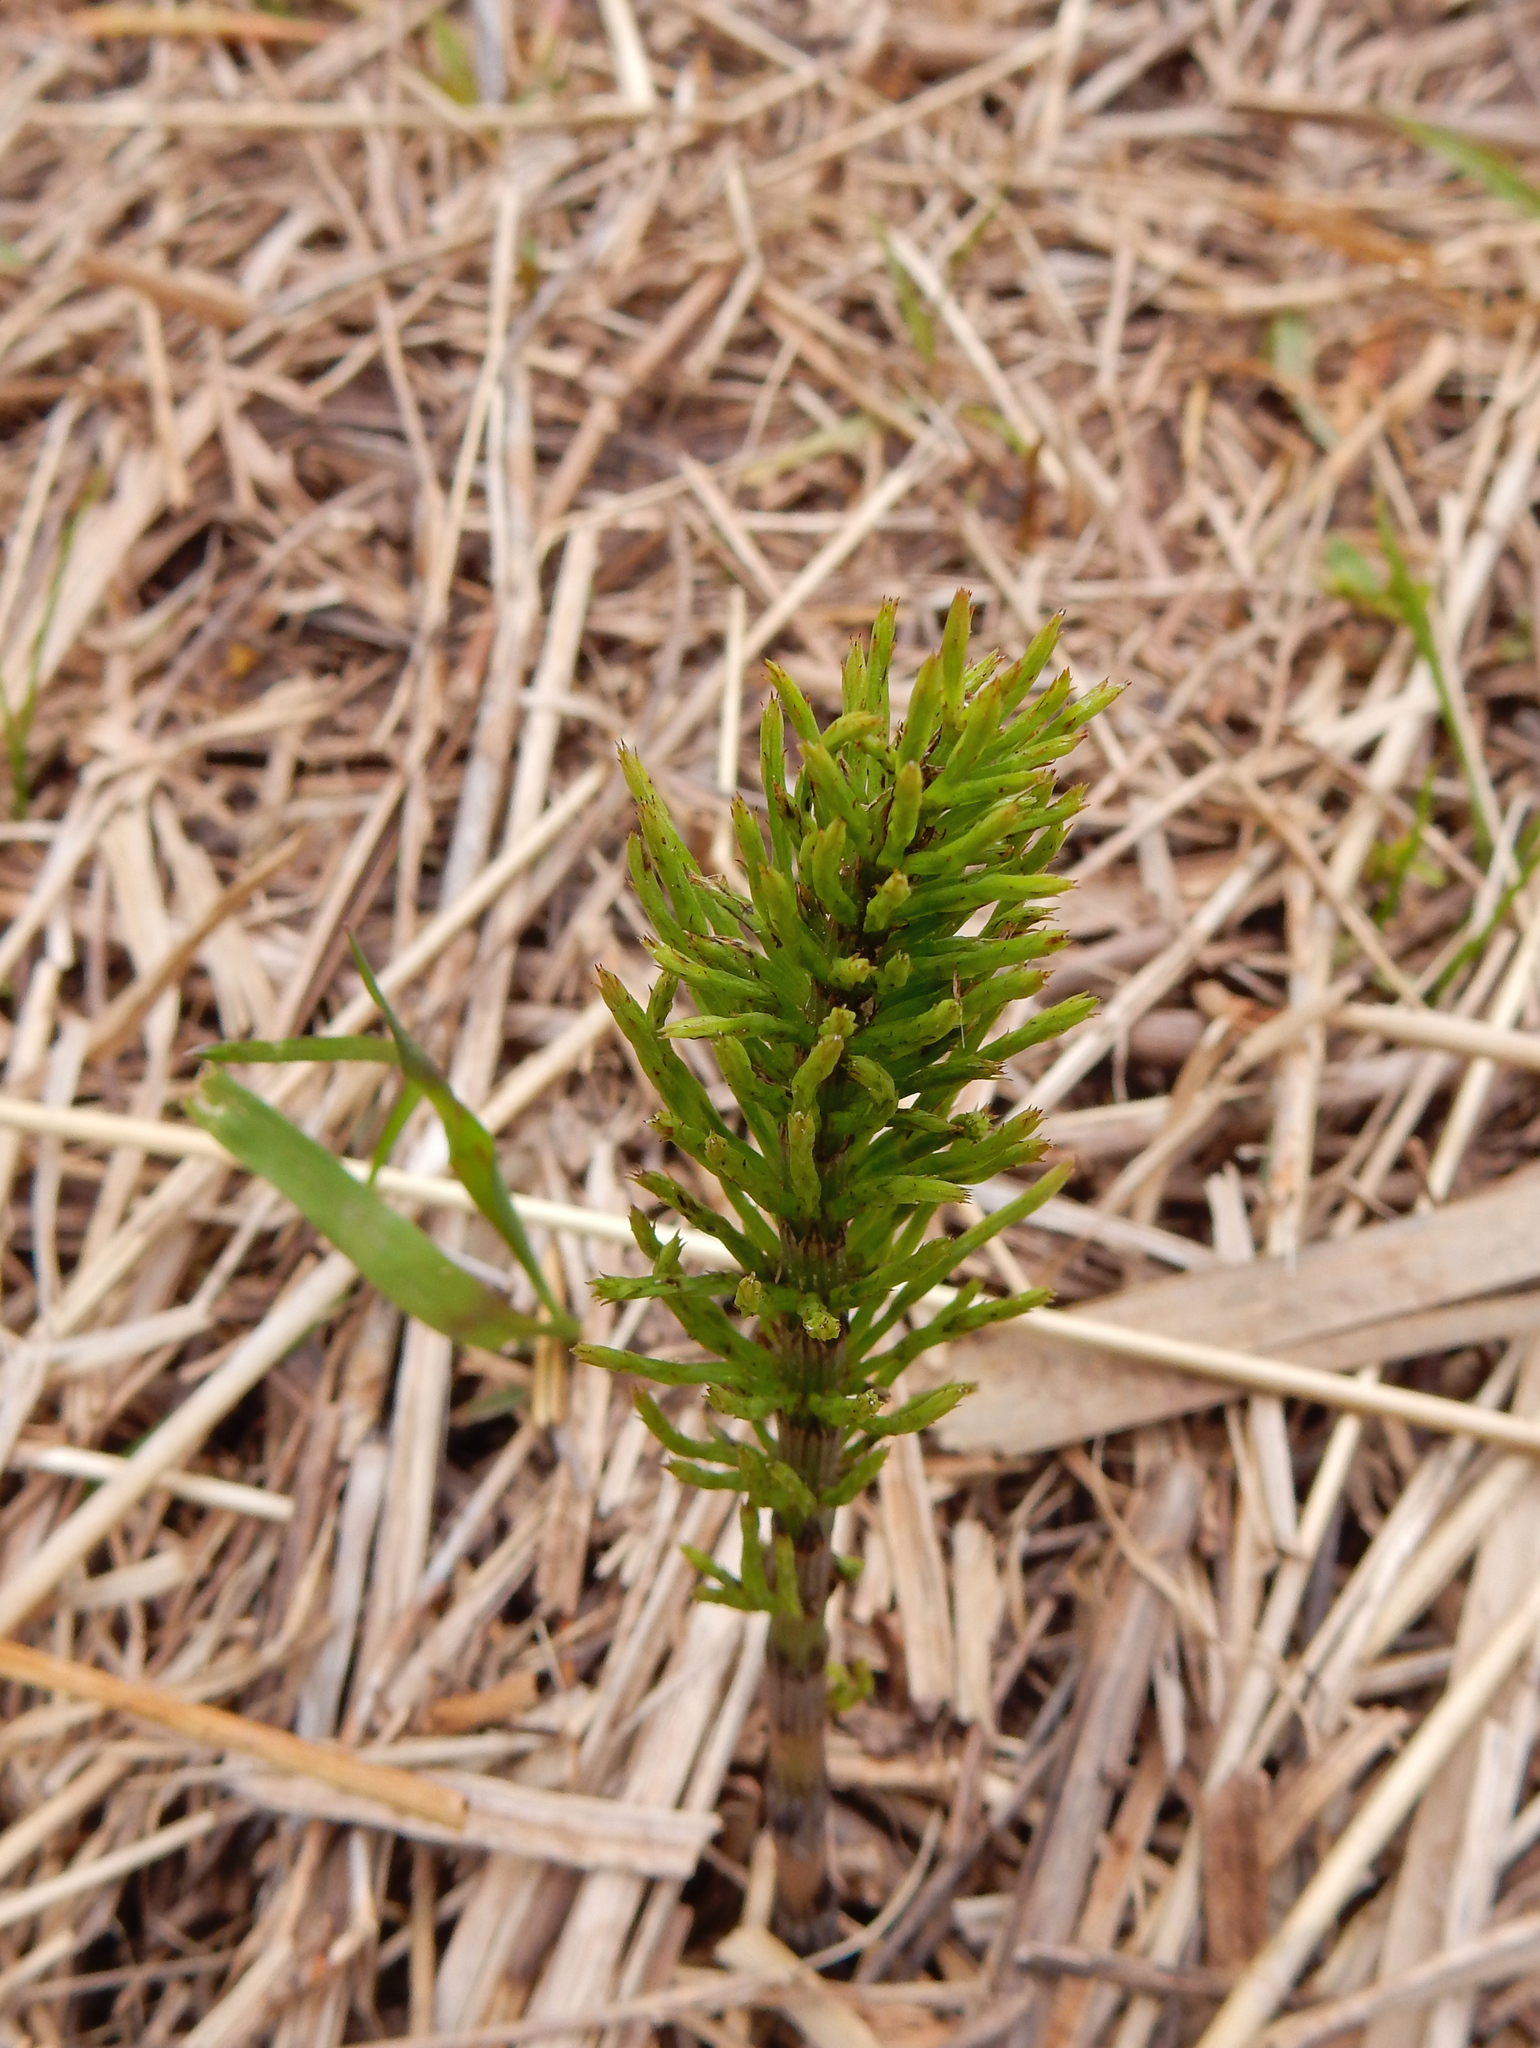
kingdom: Plantae
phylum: Tracheophyta
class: Polypodiopsida
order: Equisetales
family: Equisetaceae
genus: Equisetum
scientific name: Equisetum arvense
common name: Field horsetail
